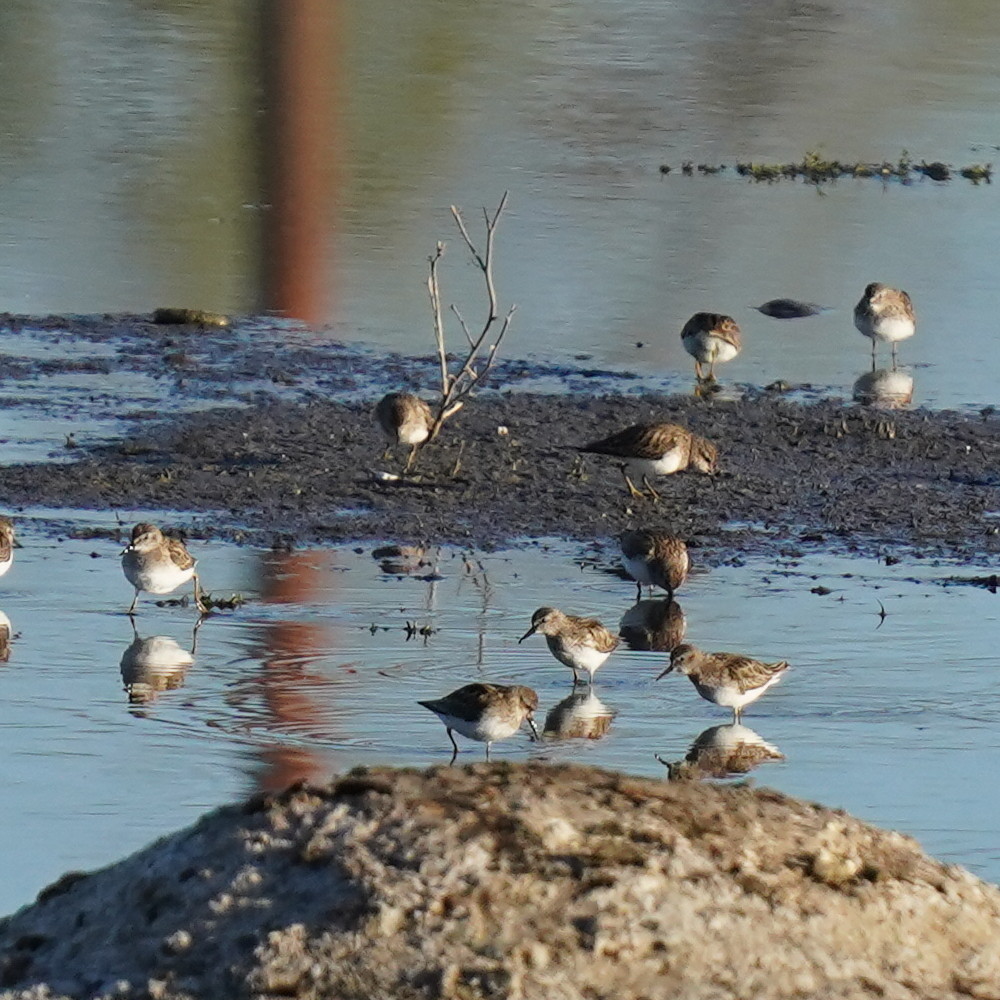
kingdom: Animalia
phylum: Chordata
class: Aves
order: Charadriiformes
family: Scolopacidae
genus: Calidris
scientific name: Calidris mauri
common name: Western sandpiper
